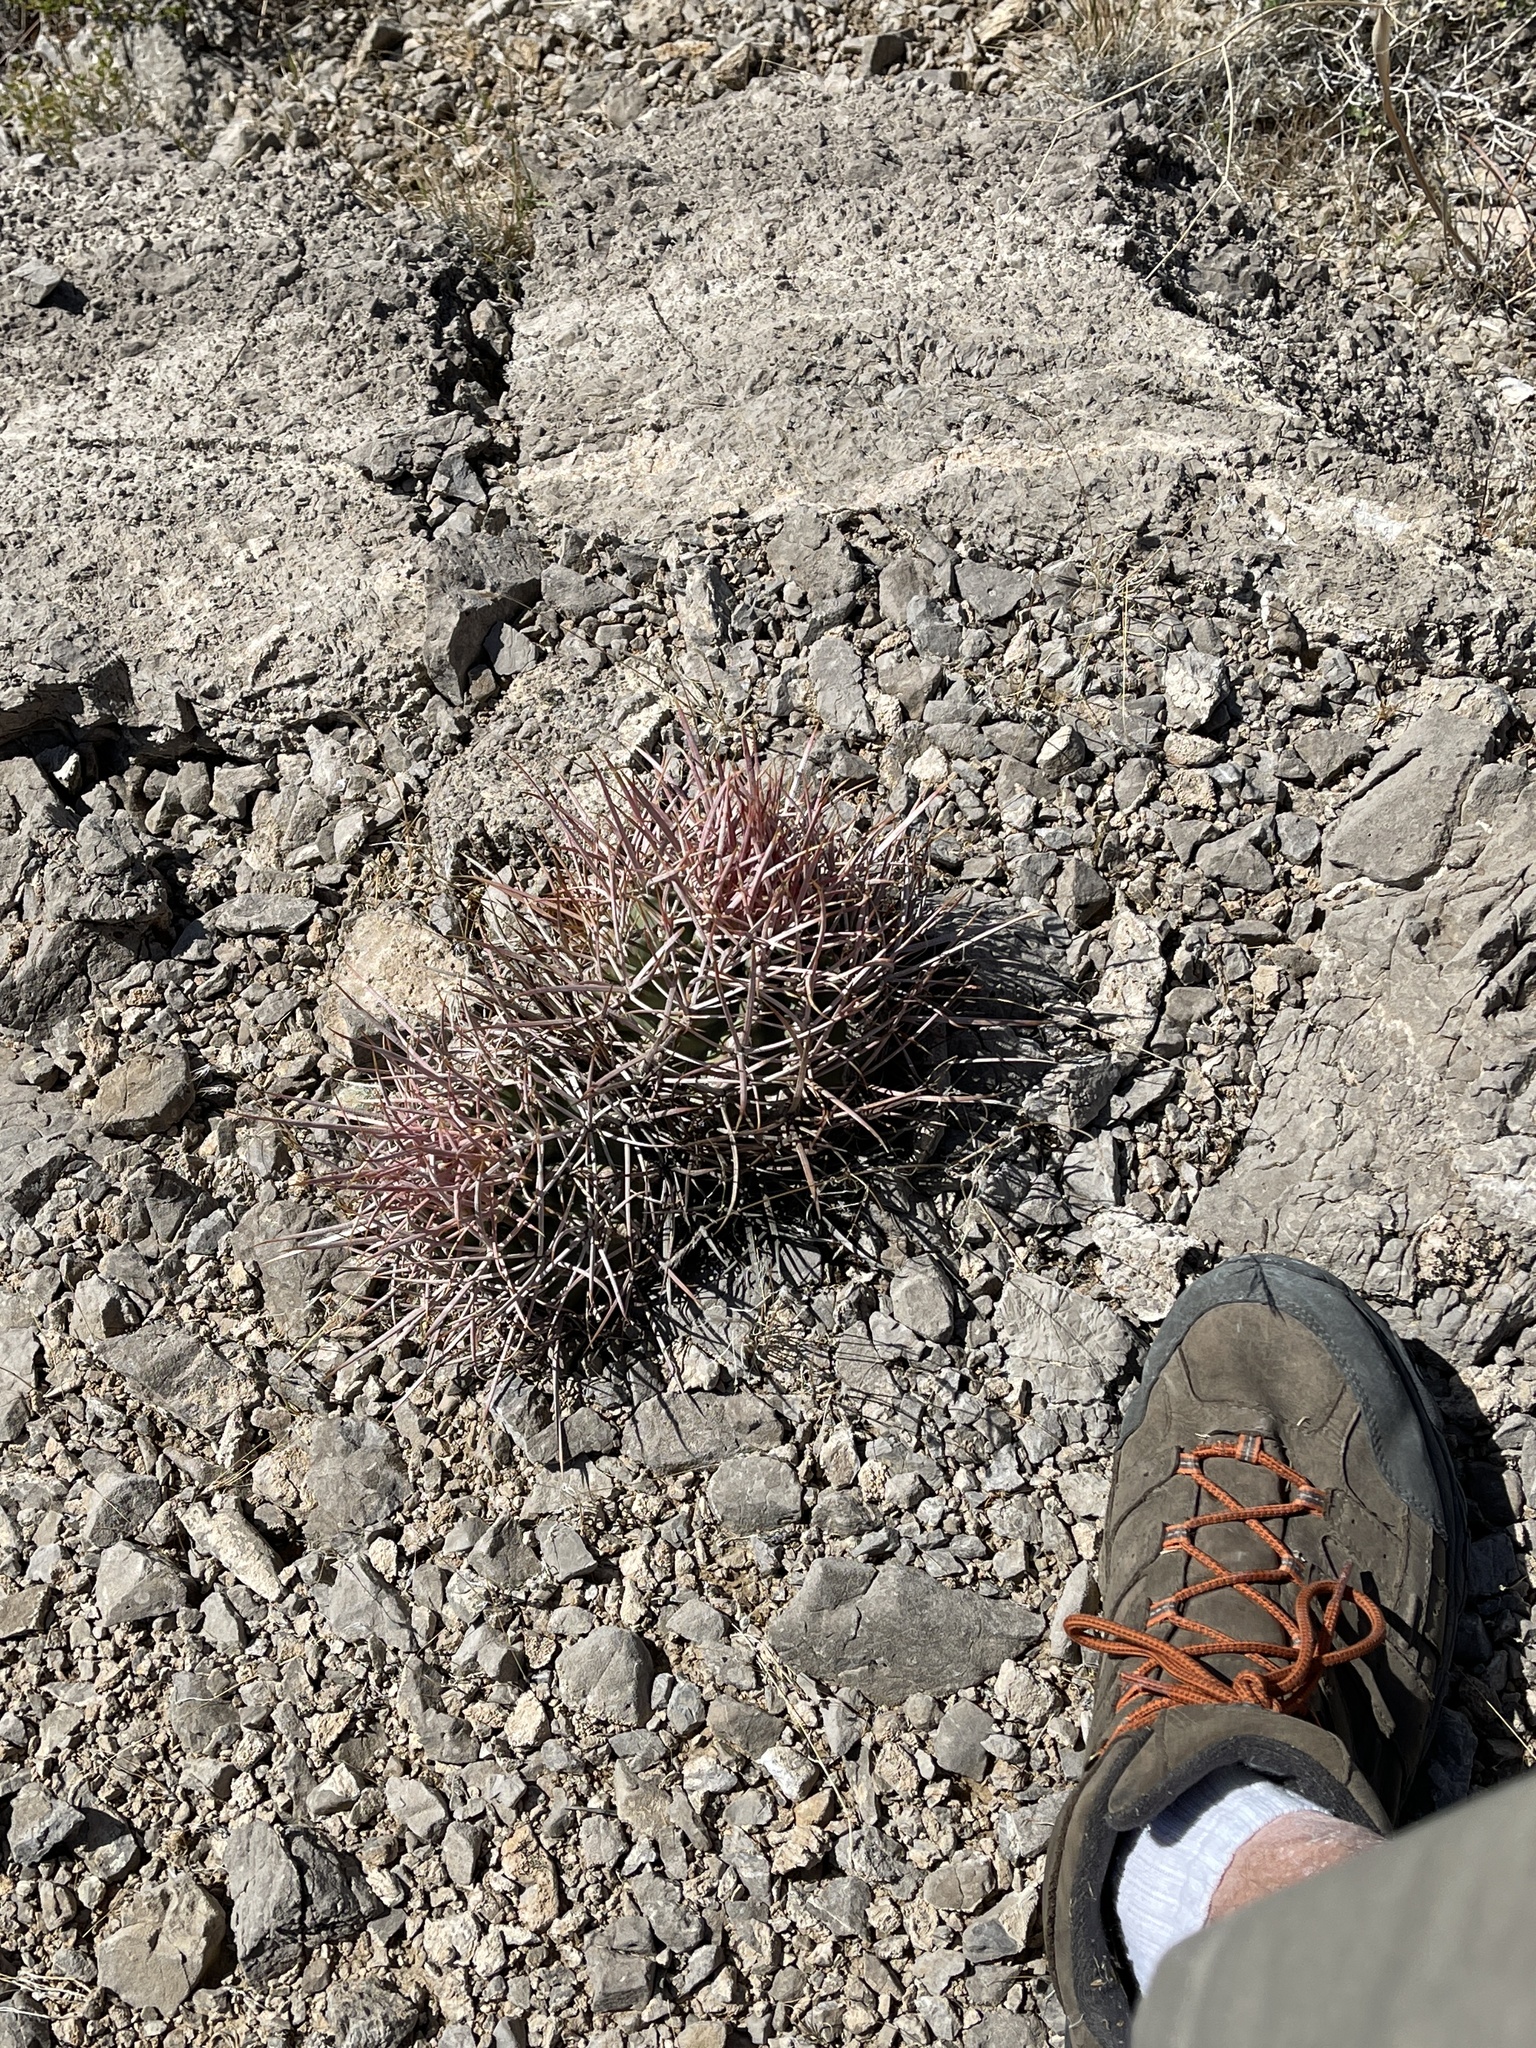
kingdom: Plantae
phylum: Tracheophyta
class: Magnoliopsida
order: Caryophyllales
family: Cactaceae
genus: Echinocactus
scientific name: Echinocactus polycephalus
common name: Cottontop cactus
